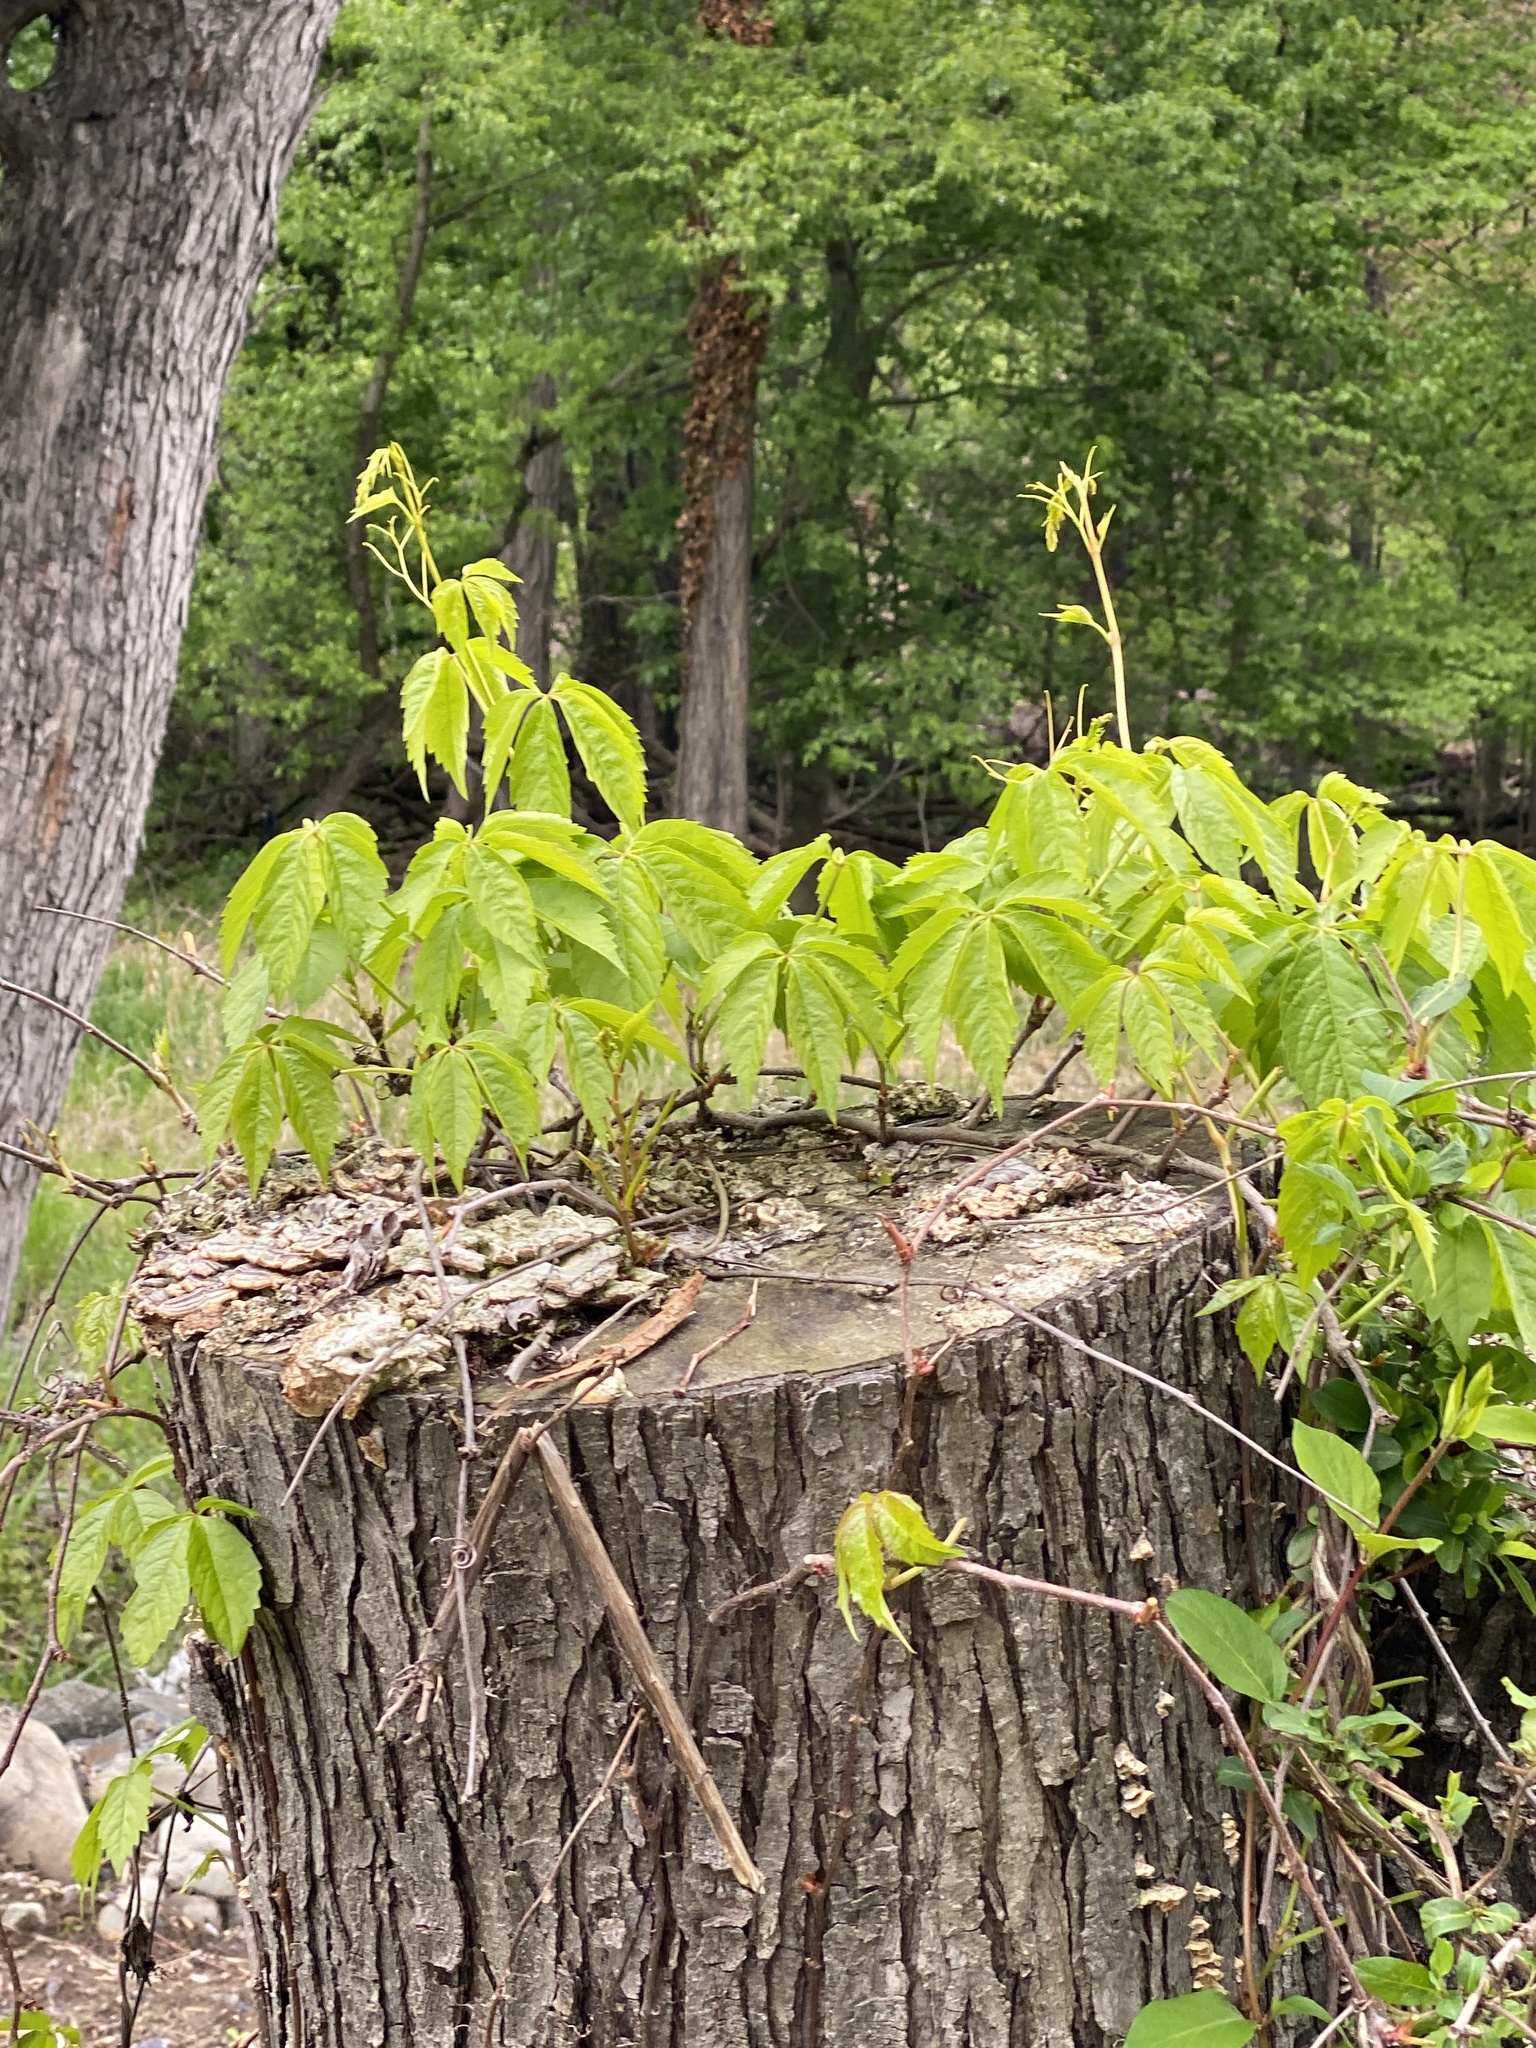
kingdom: Plantae
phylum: Tracheophyta
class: Magnoliopsida
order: Vitales
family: Vitaceae
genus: Parthenocissus
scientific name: Parthenocissus quinquefolia
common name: Virginia-creeper
